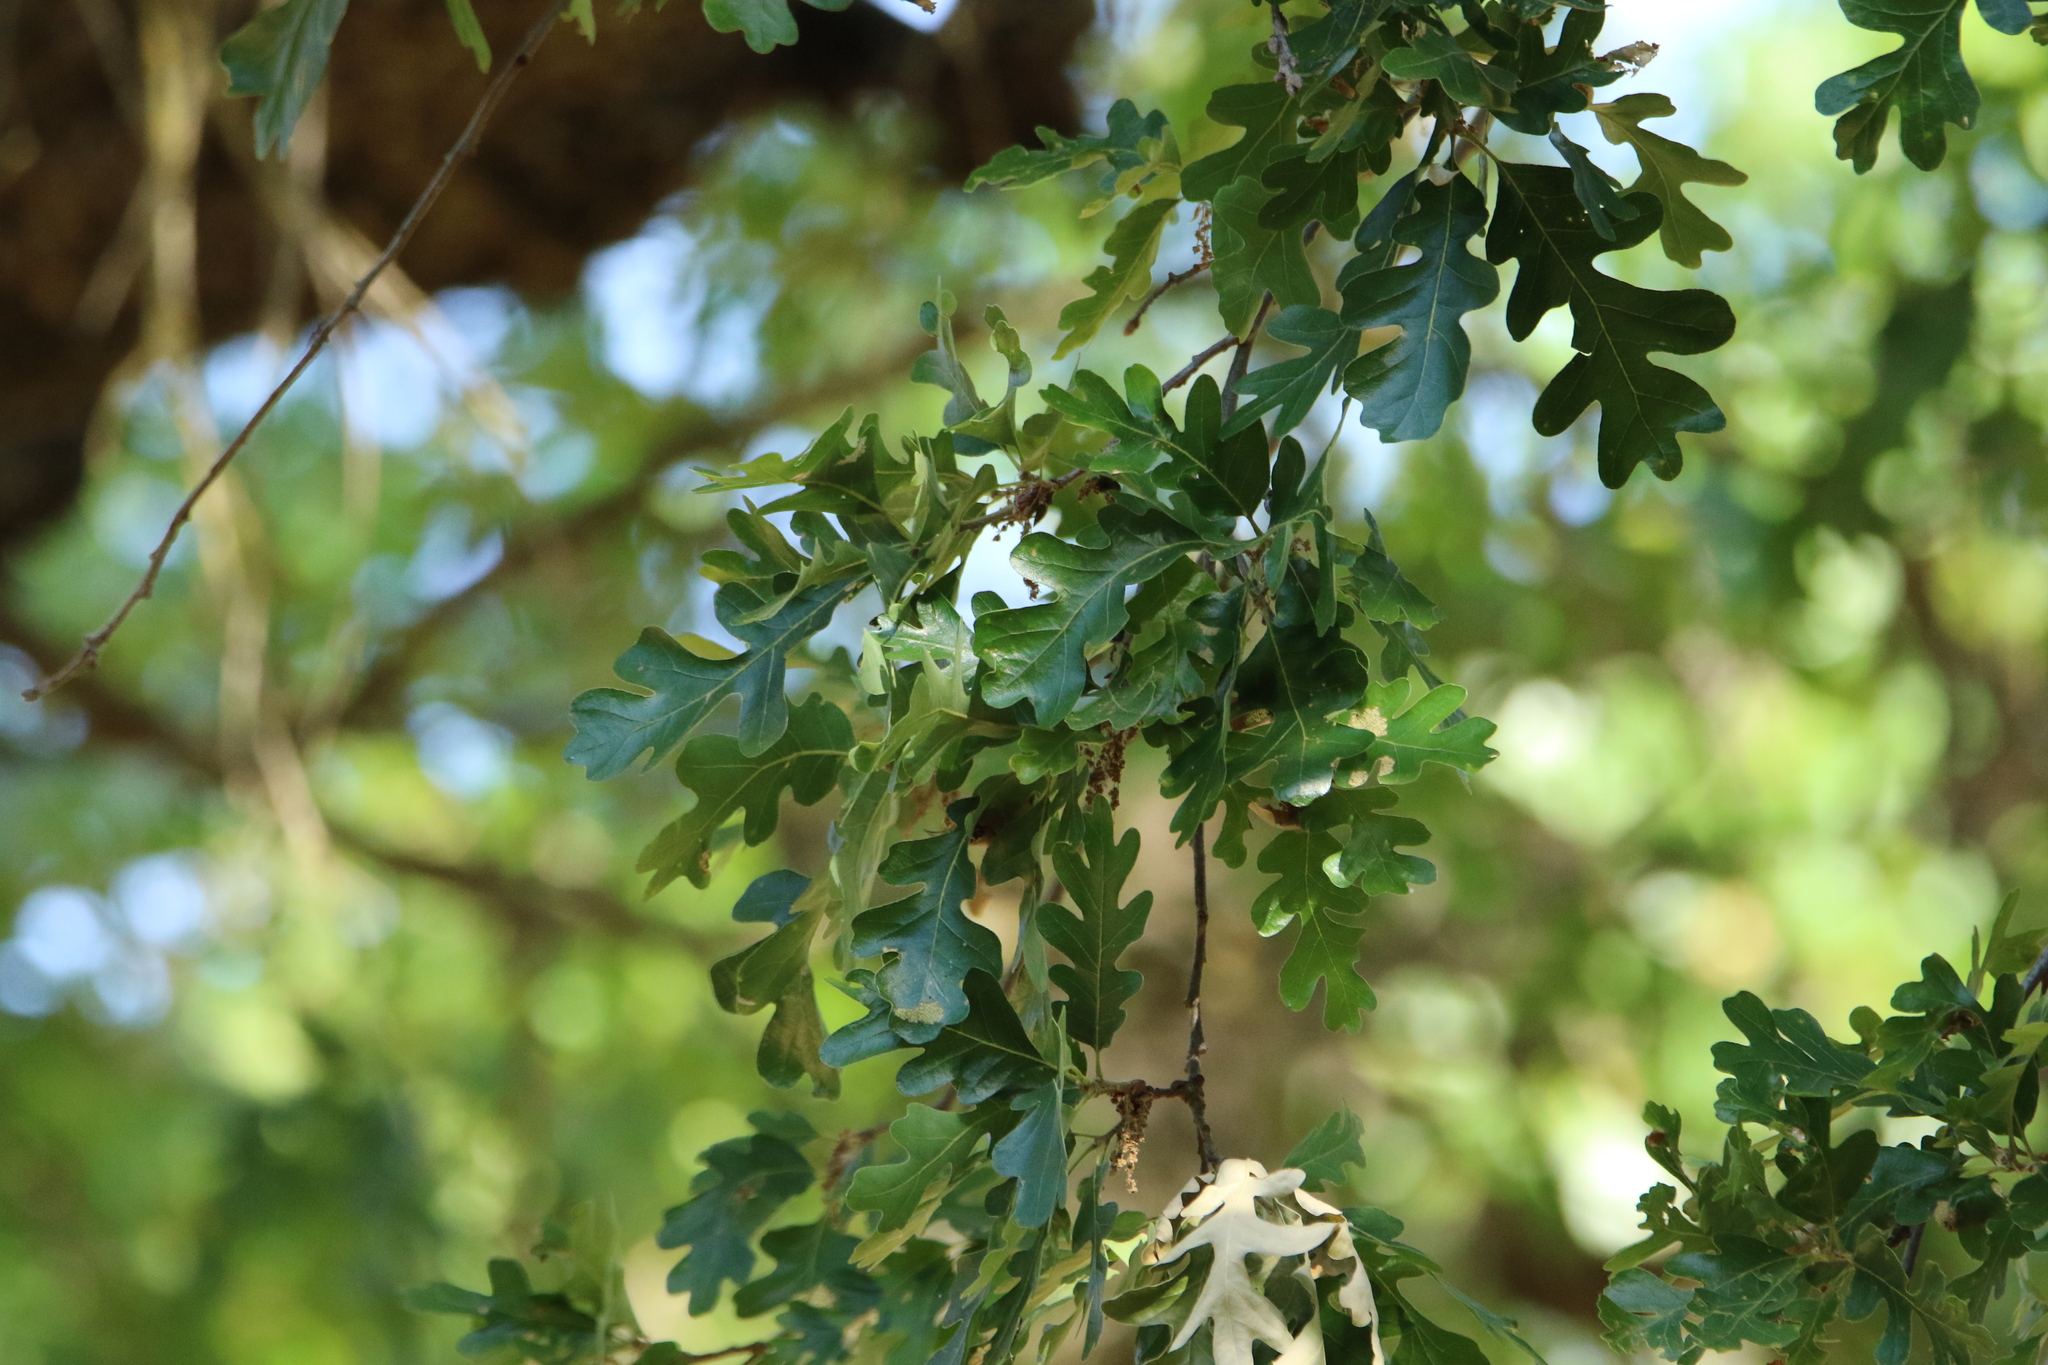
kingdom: Plantae
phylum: Tracheophyta
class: Magnoliopsida
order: Fagales
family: Fagaceae
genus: Quercus
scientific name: Quercus lobata
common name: Valley oak
